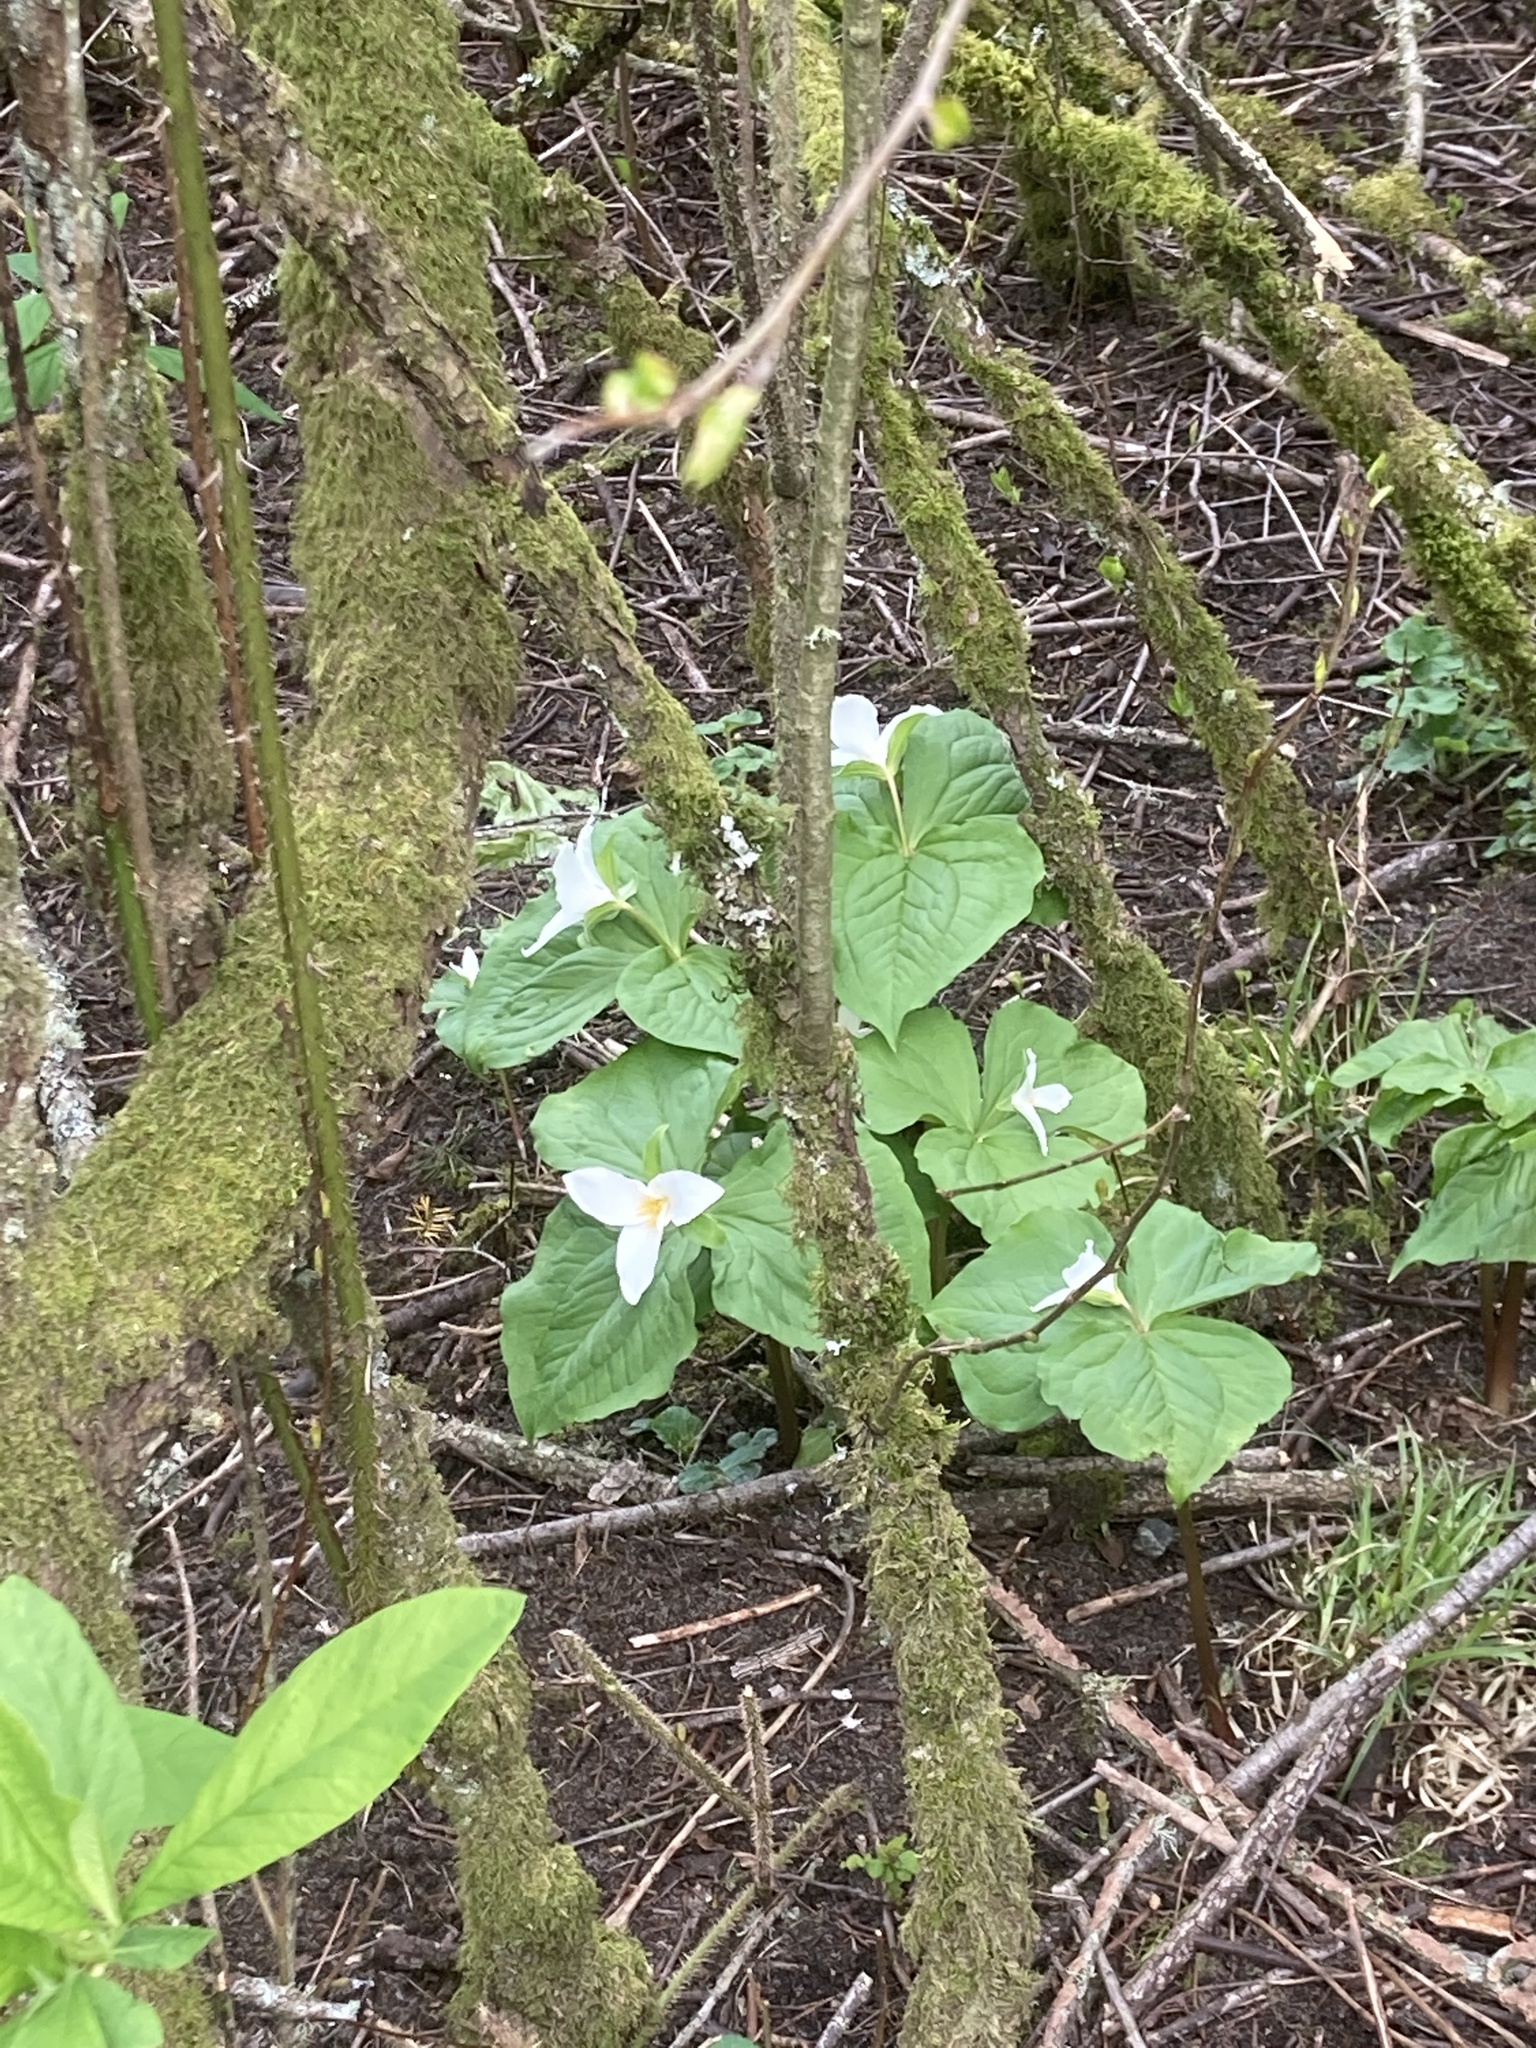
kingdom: Plantae
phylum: Tracheophyta
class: Liliopsida
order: Liliales
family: Melanthiaceae
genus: Trillium
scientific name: Trillium ovatum
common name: Pacific trillium
